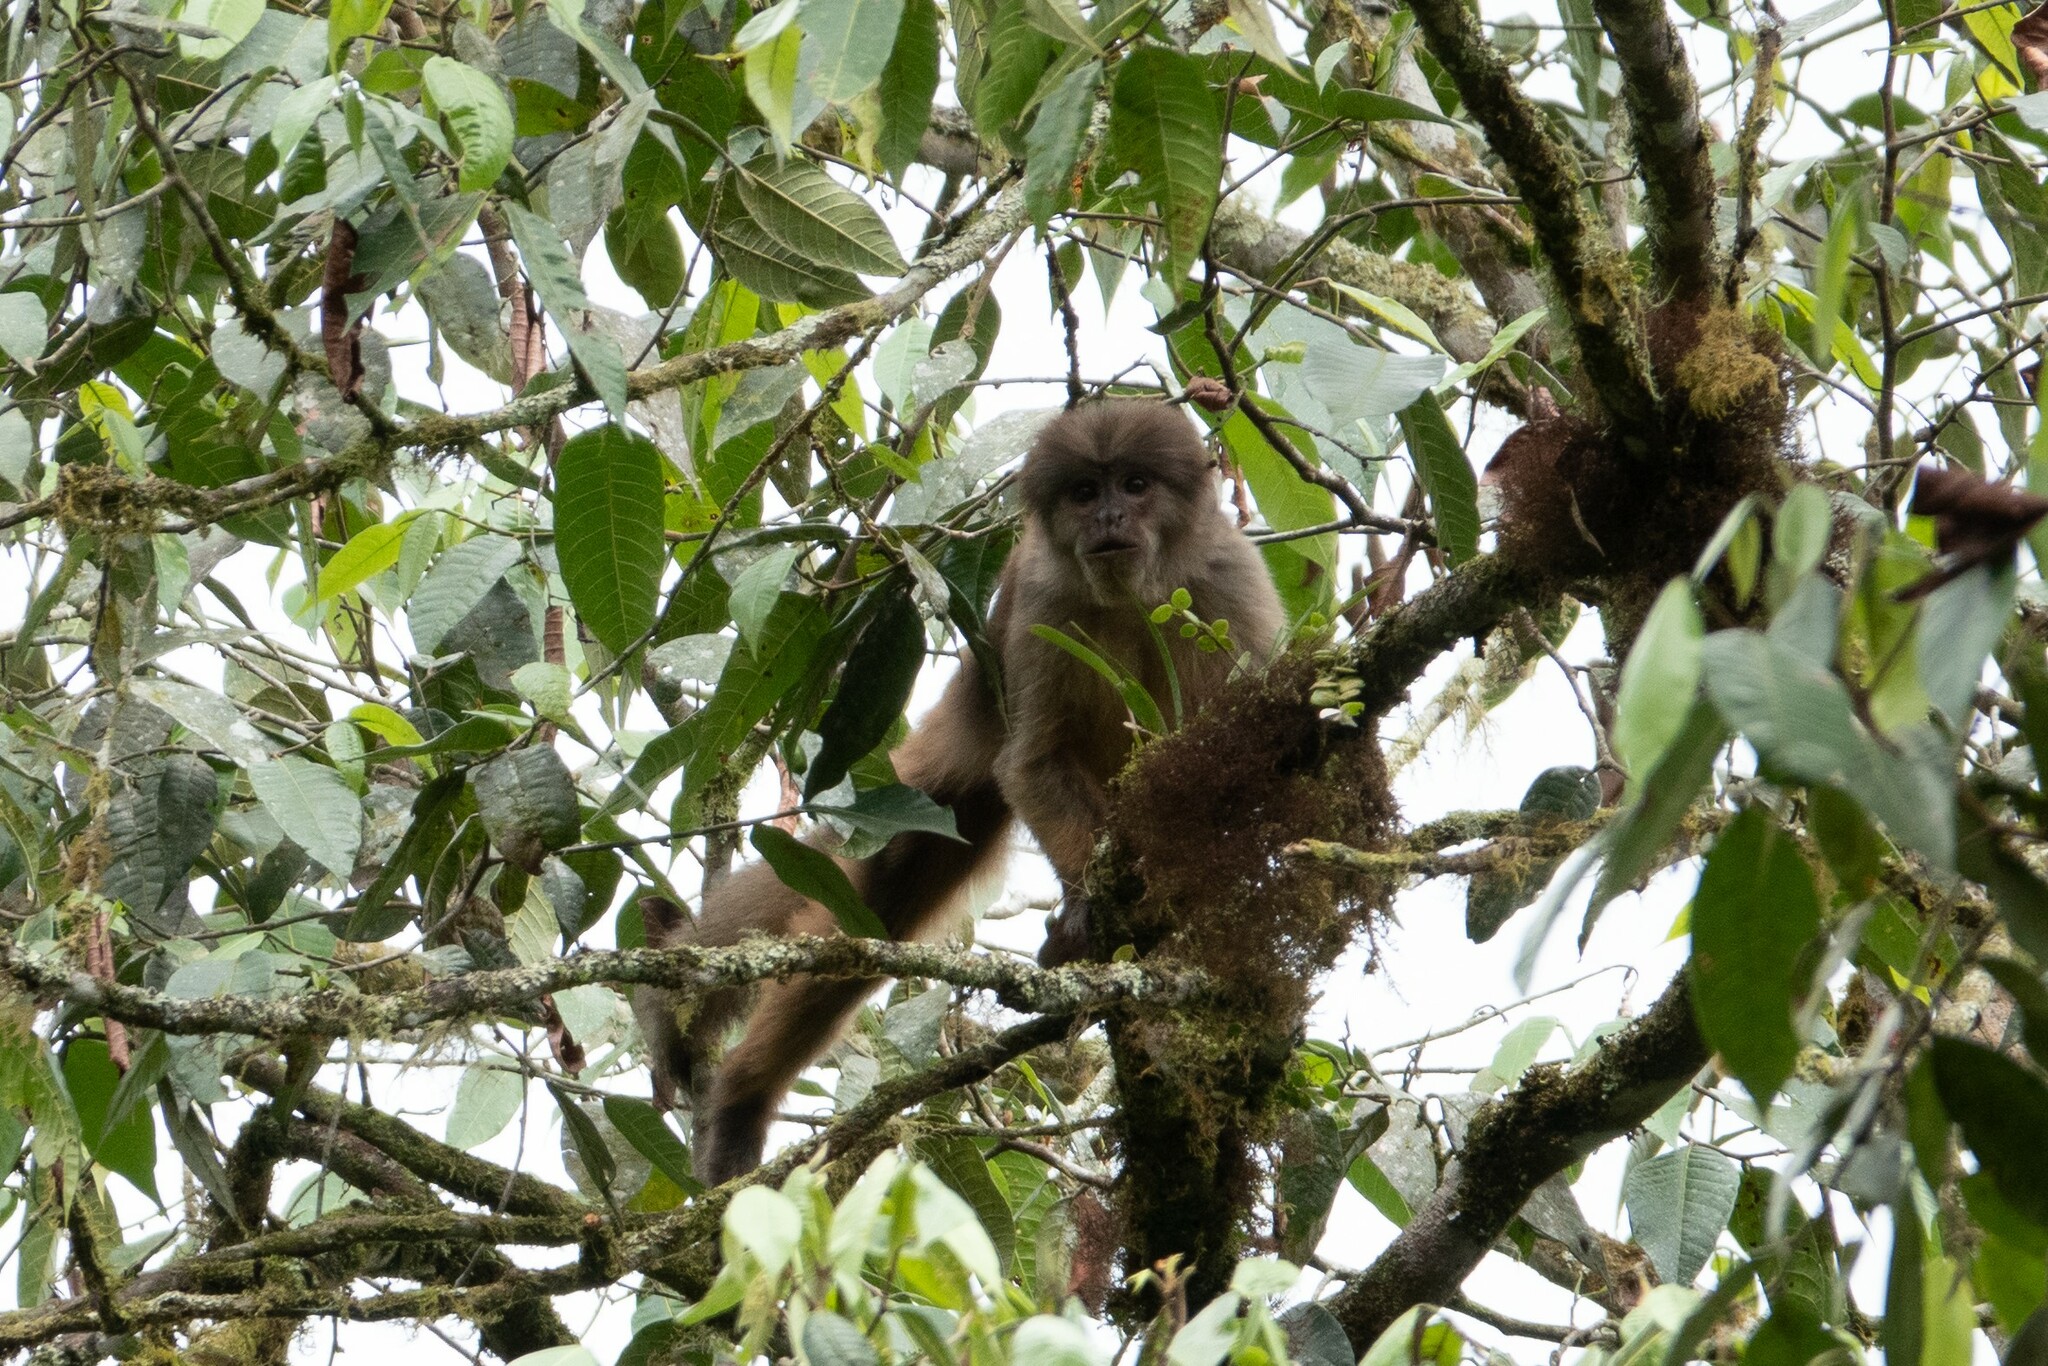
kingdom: Animalia
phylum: Chordata
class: Mammalia
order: Primates
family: Cebidae
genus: Cebus
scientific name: Cebus aequatorialis
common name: Ecuadorian white-fronted capuchin
